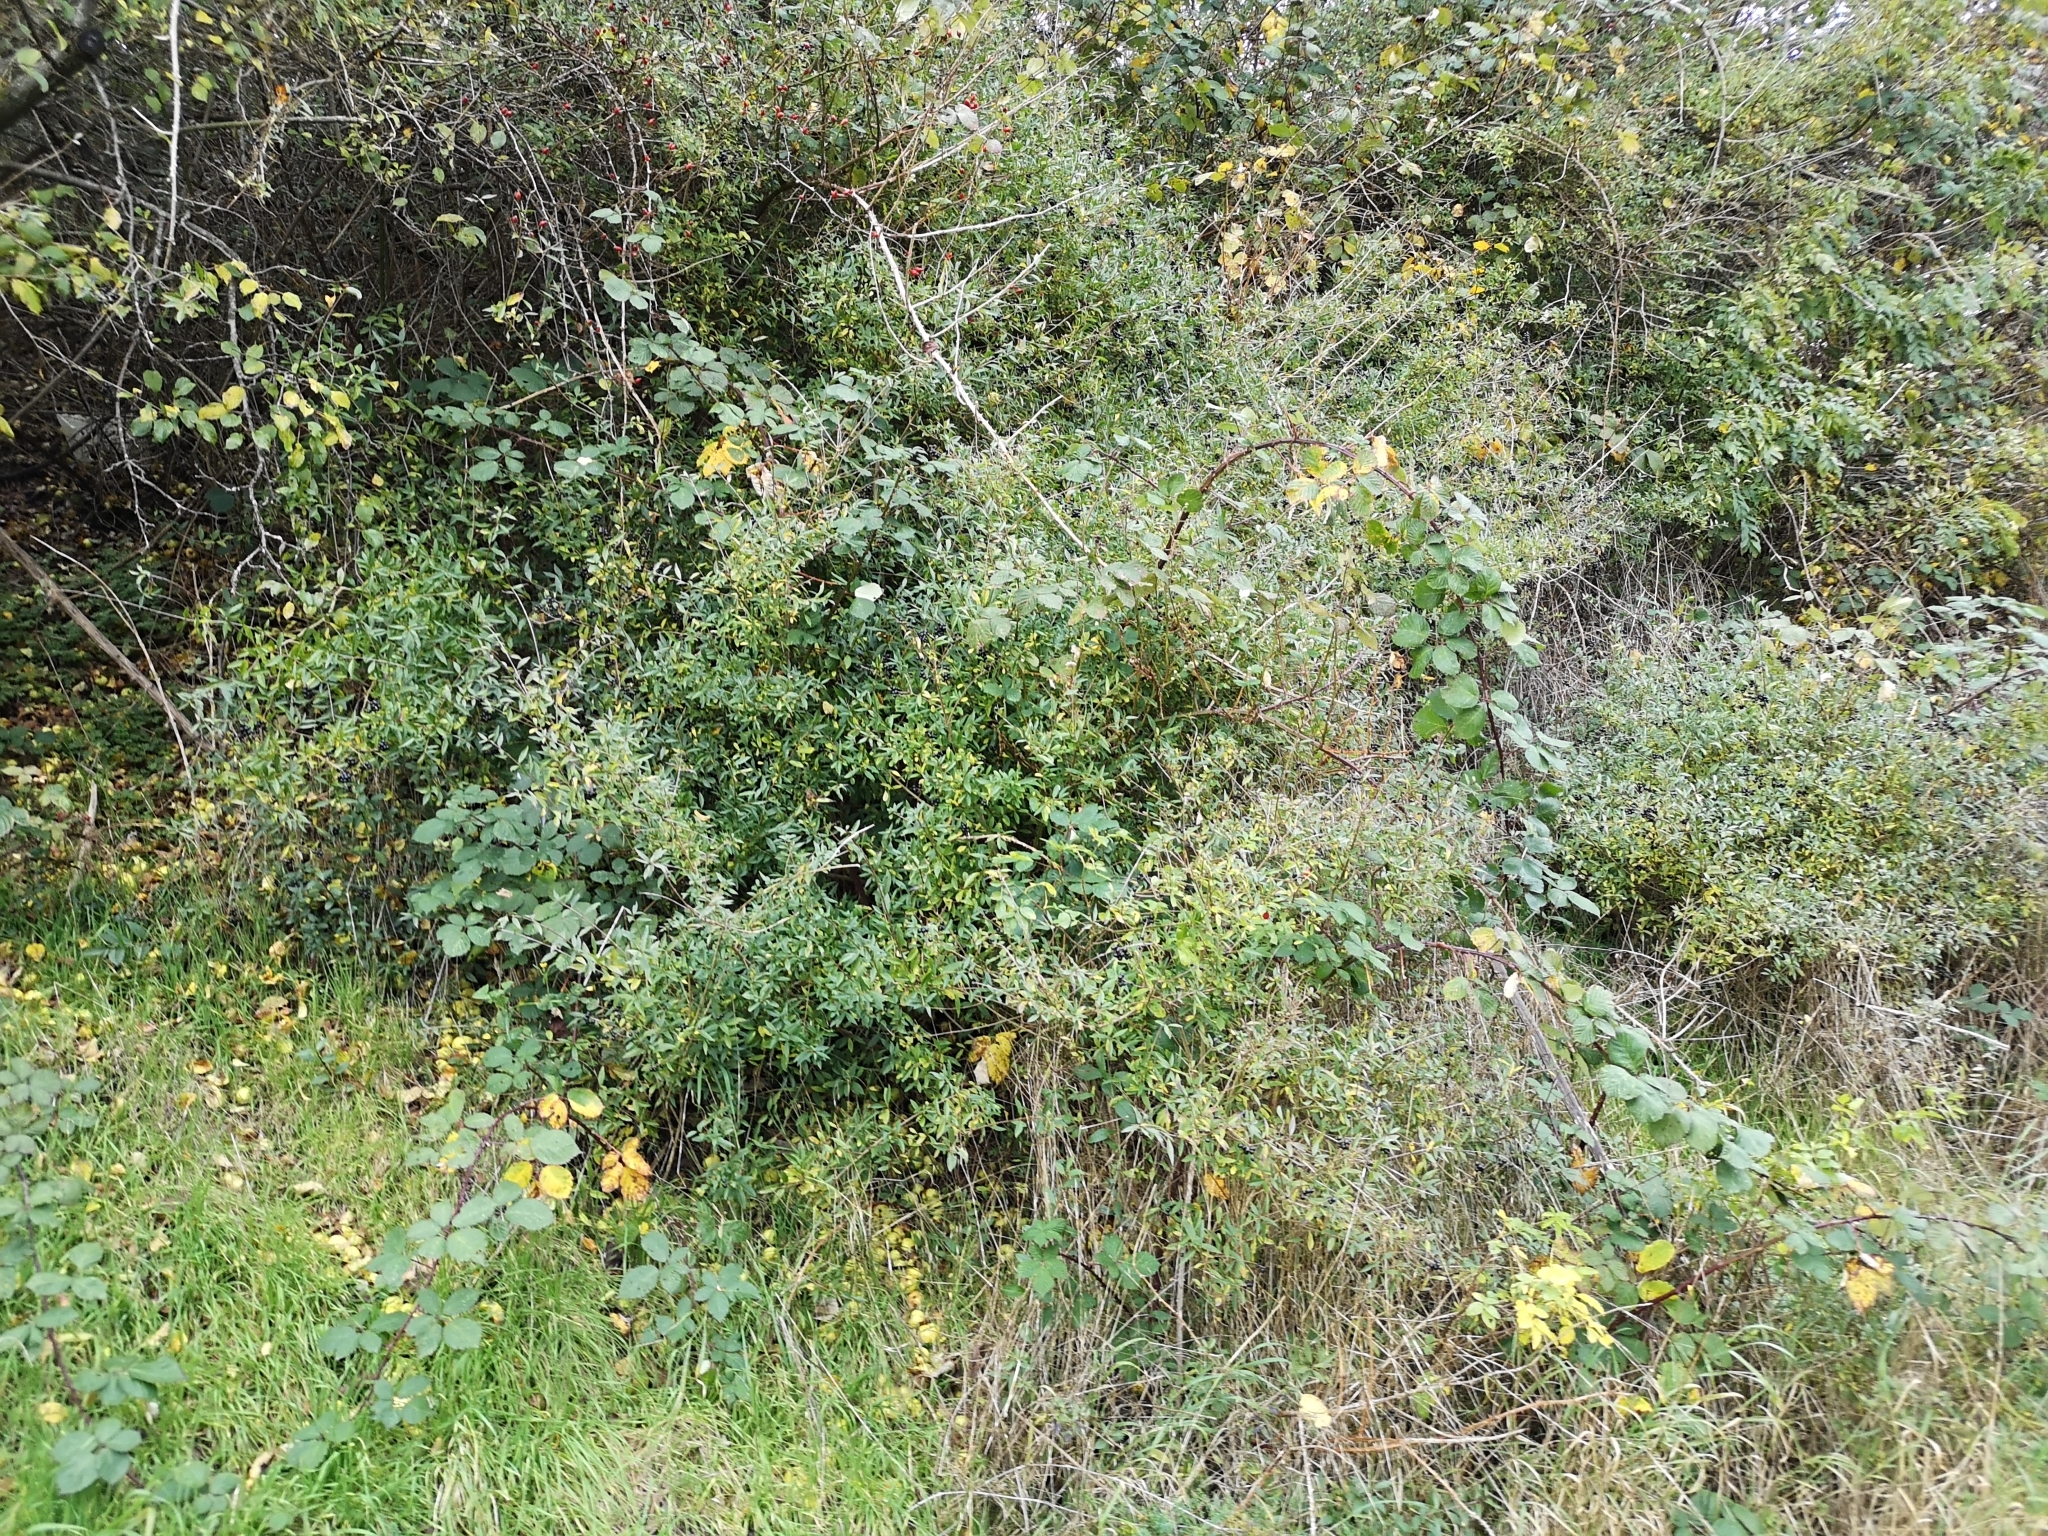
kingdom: Plantae
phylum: Tracheophyta
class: Magnoliopsida
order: Lamiales
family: Oleaceae
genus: Ligustrum
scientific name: Ligustrum vulgare
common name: Wild privet
